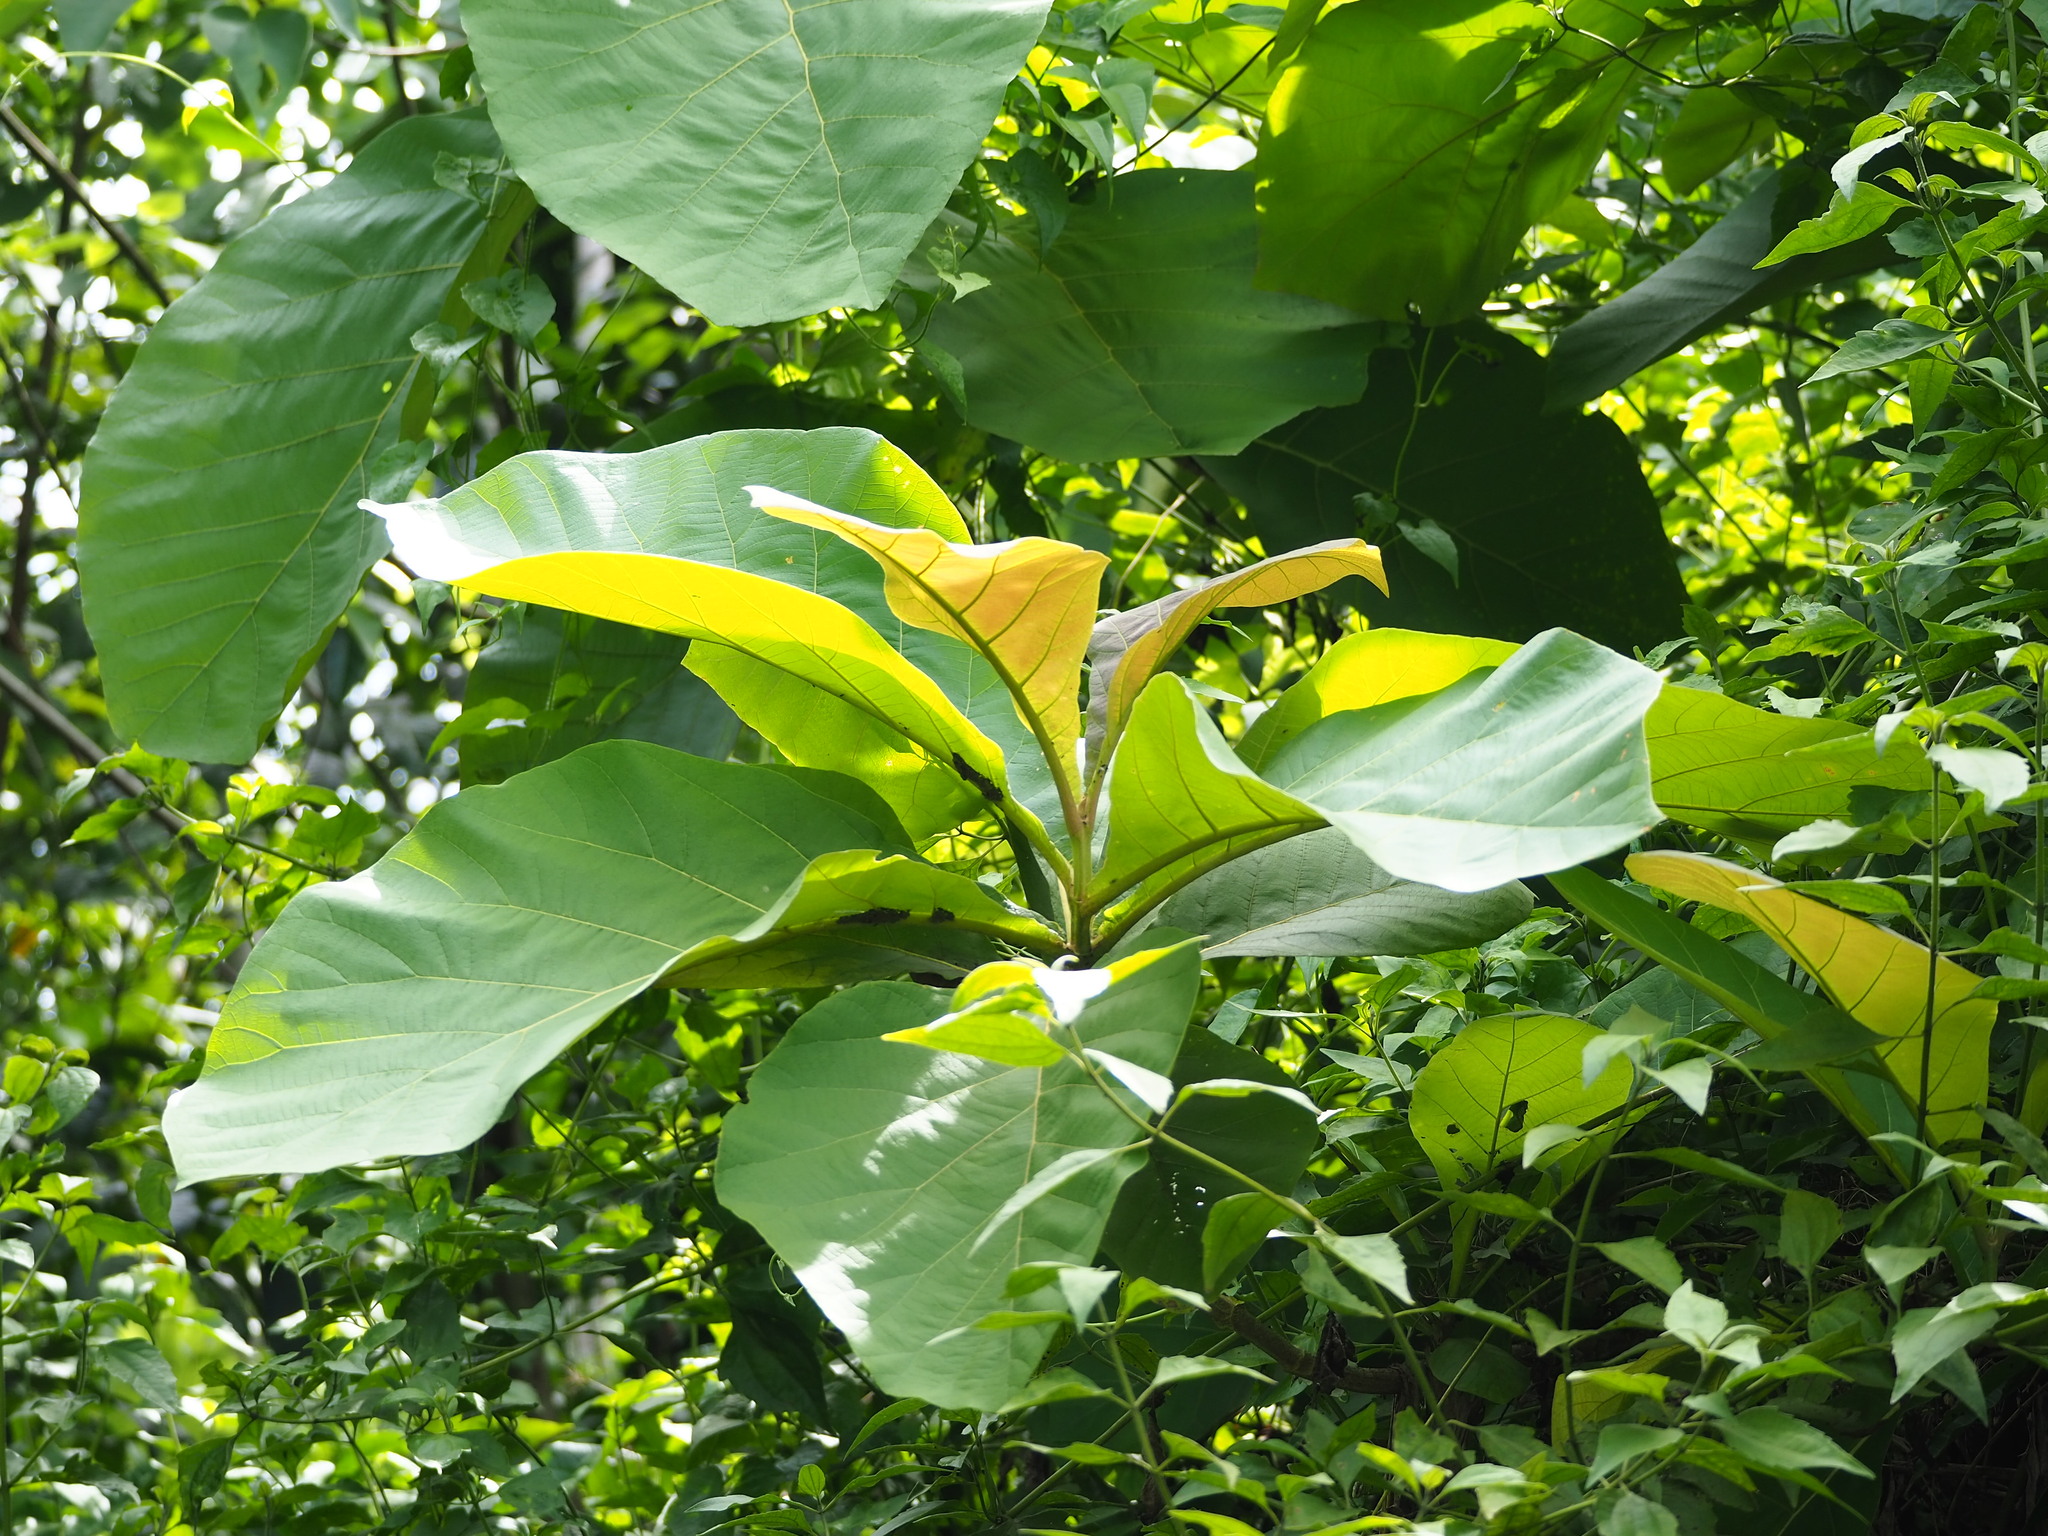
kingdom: Plantae
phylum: Tracheophyta
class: Magnoliopsida
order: Lamiales
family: Lamiaceae
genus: Tectona
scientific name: Tectona grandis
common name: Teak
